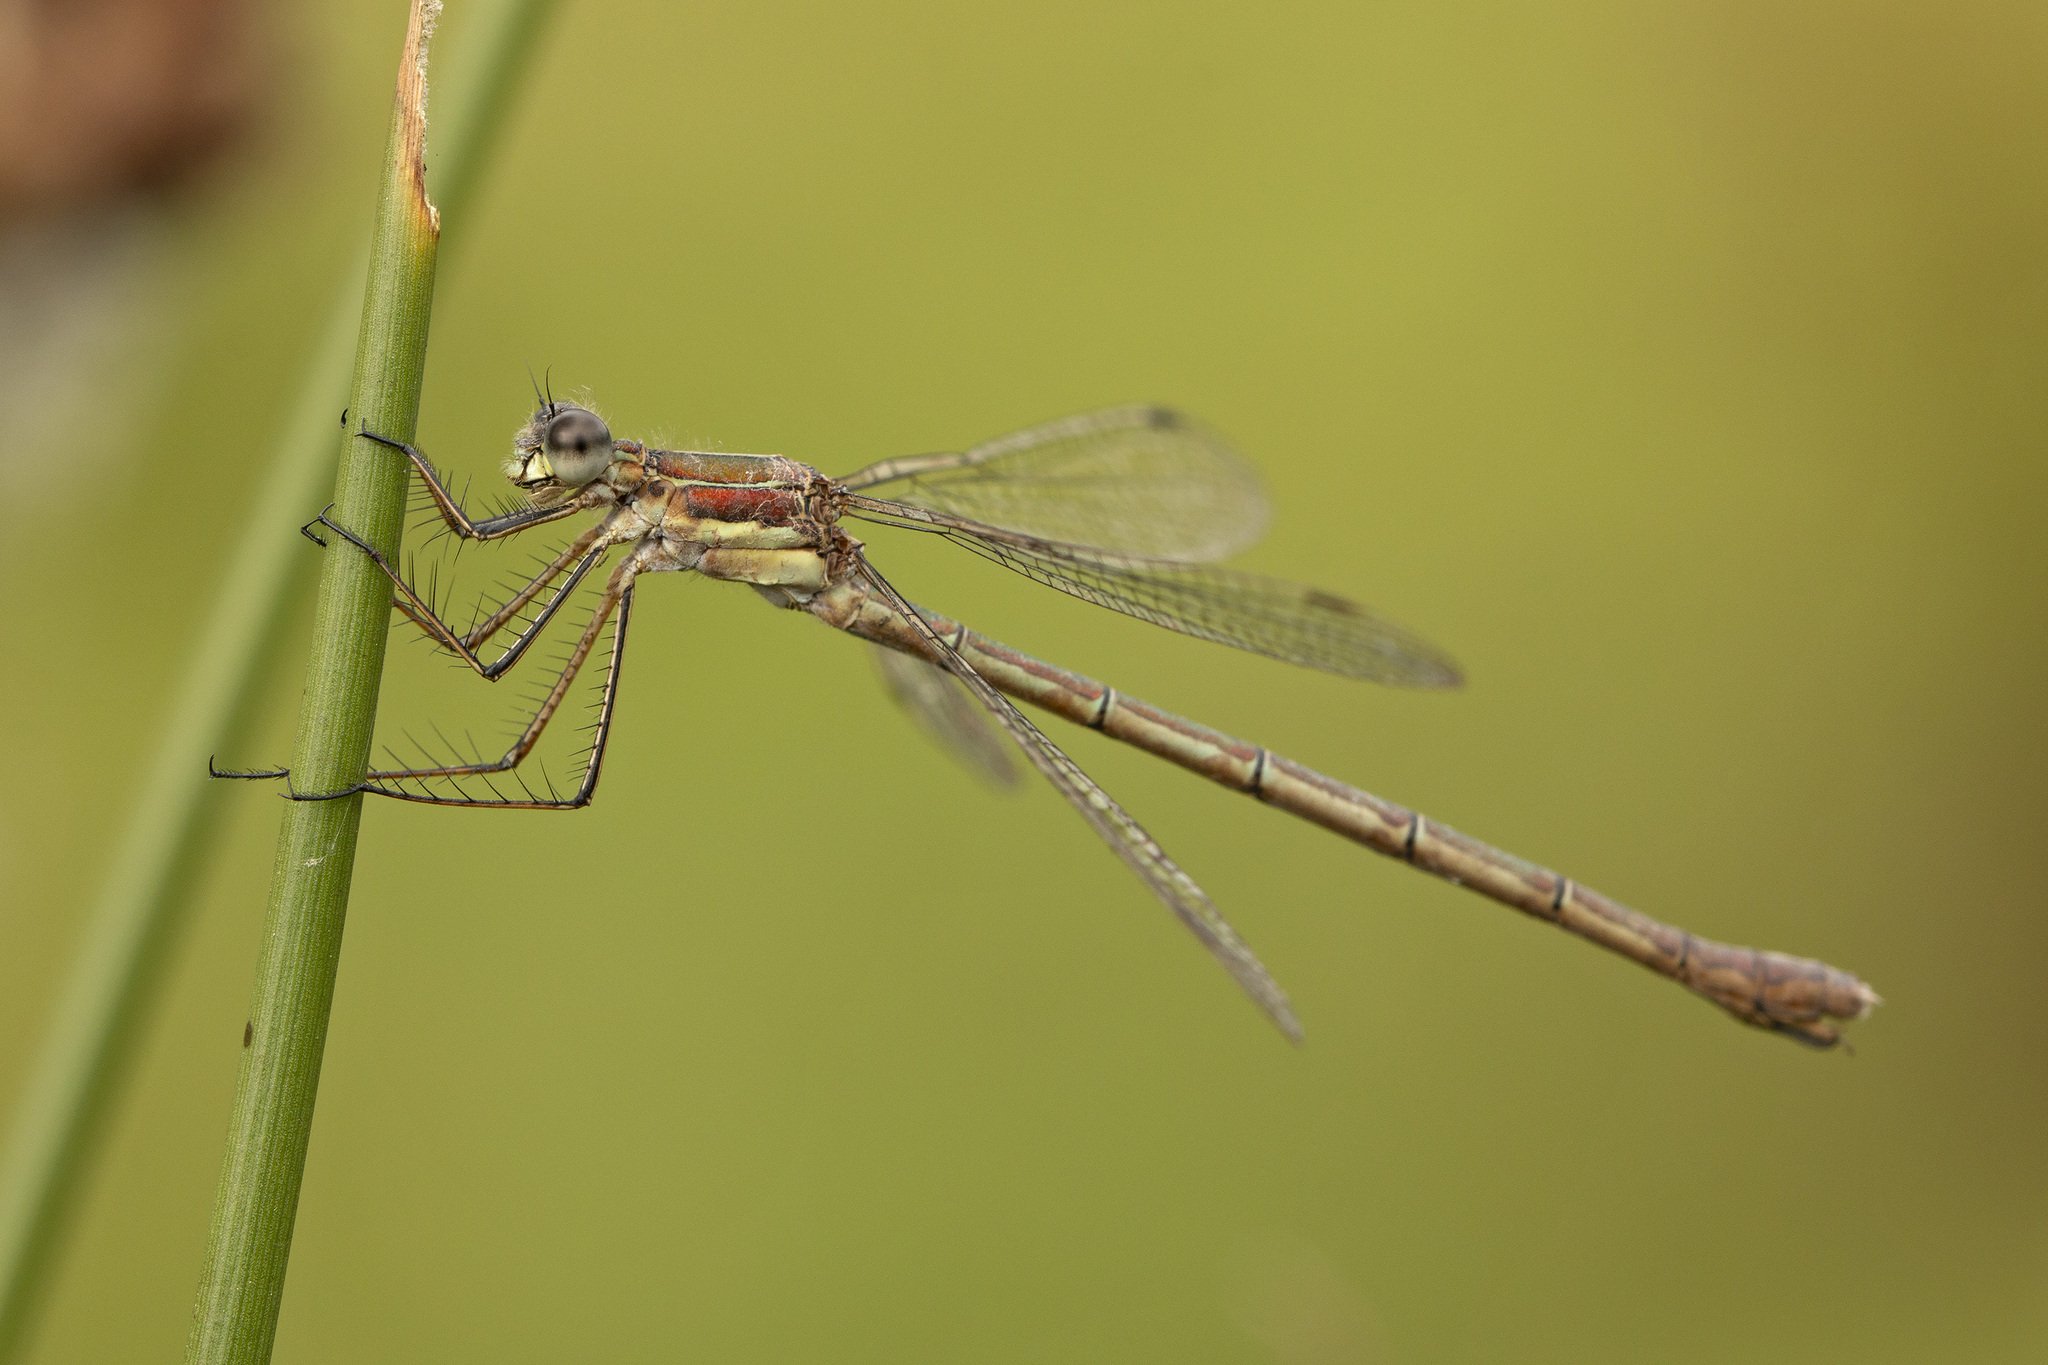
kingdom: Animalia
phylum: Arthropoda
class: Insecta
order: Odonata
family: Lestidae
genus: Lestes
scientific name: Lestes sponsa
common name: Common spreadwing
